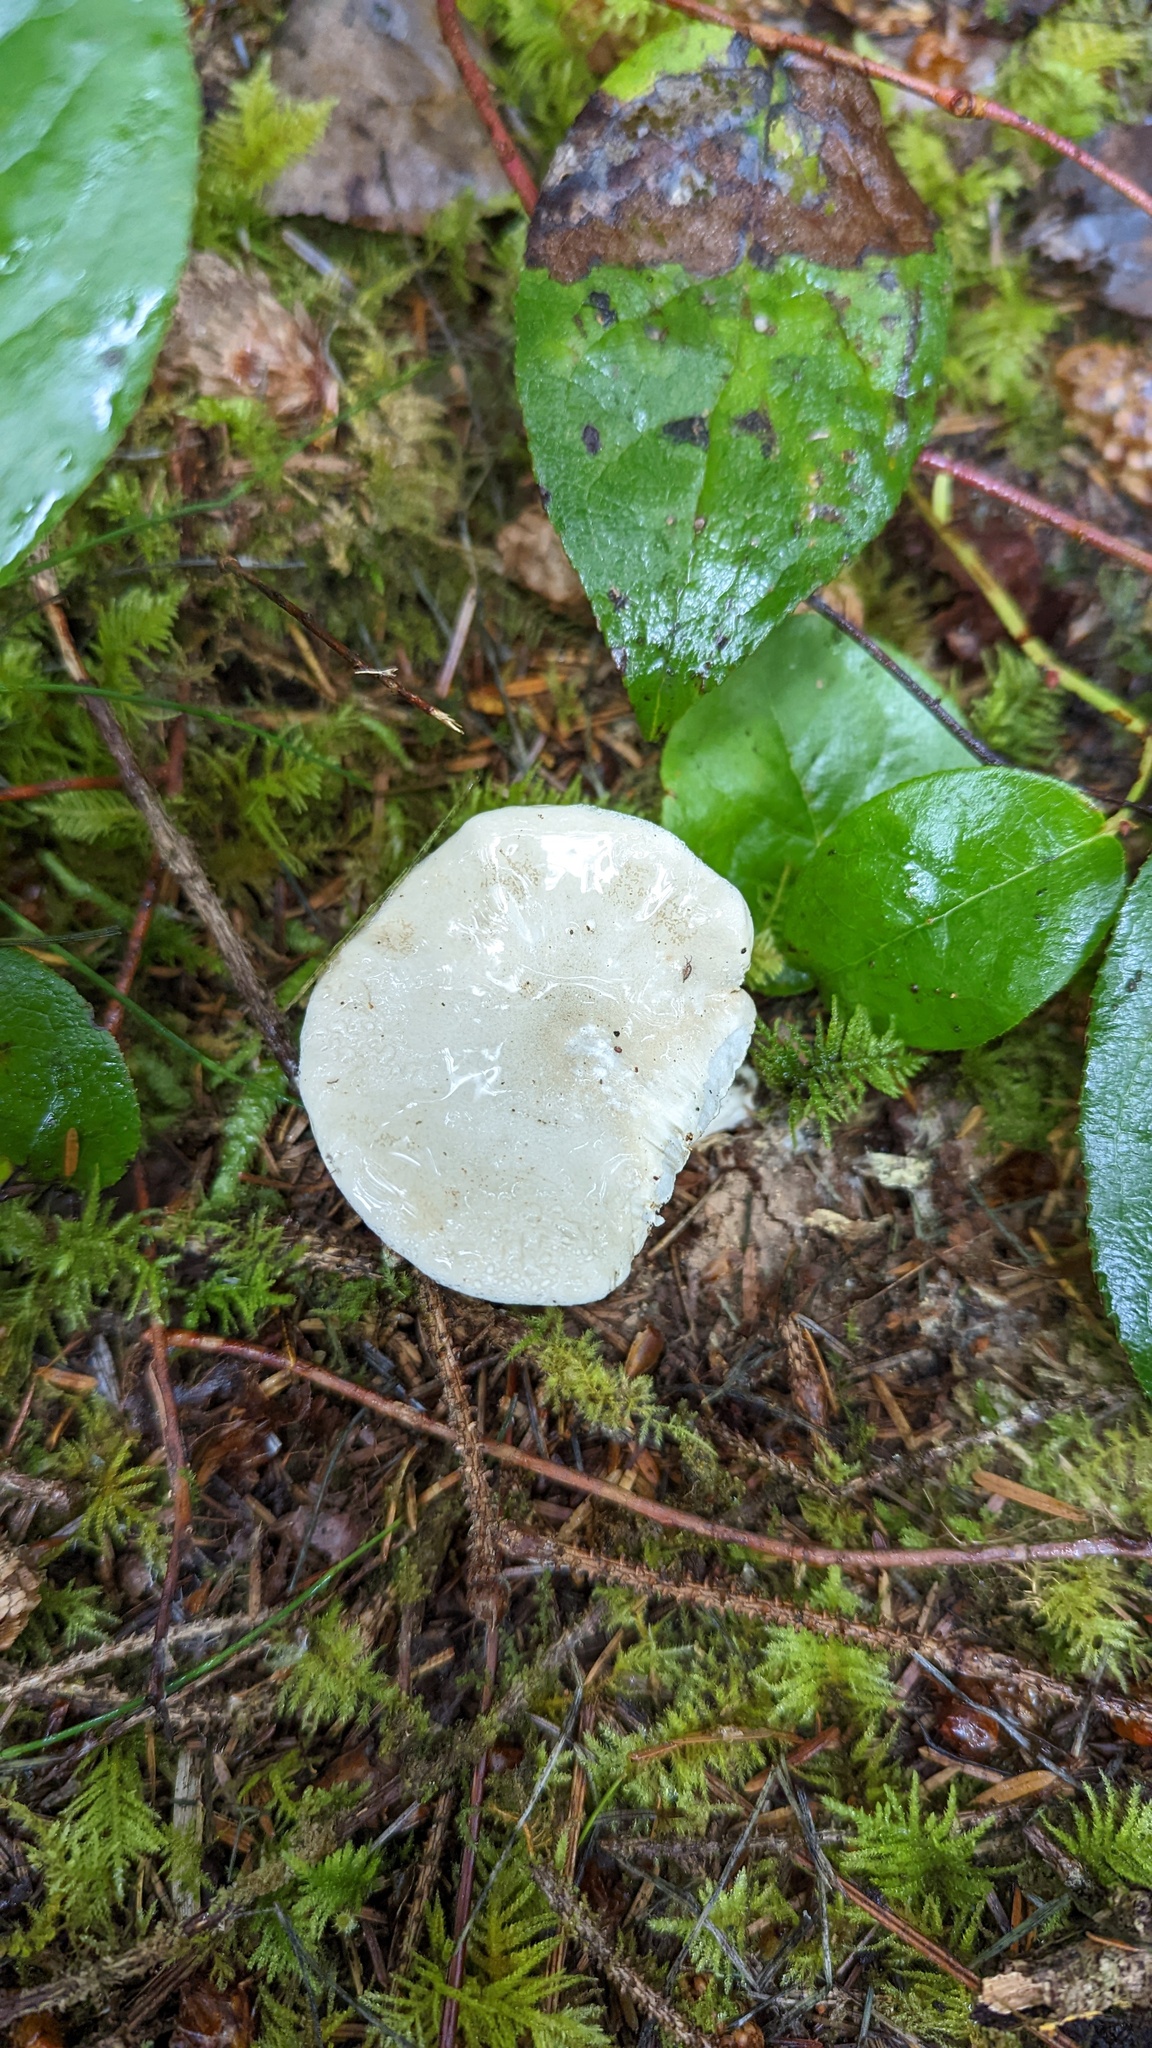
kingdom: Fungi
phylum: Basidiomycota
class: Agaricomycetes
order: Agaricales
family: Entolomataceae
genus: Clitopilus
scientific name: Clitopilus prunulus
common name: The miller
